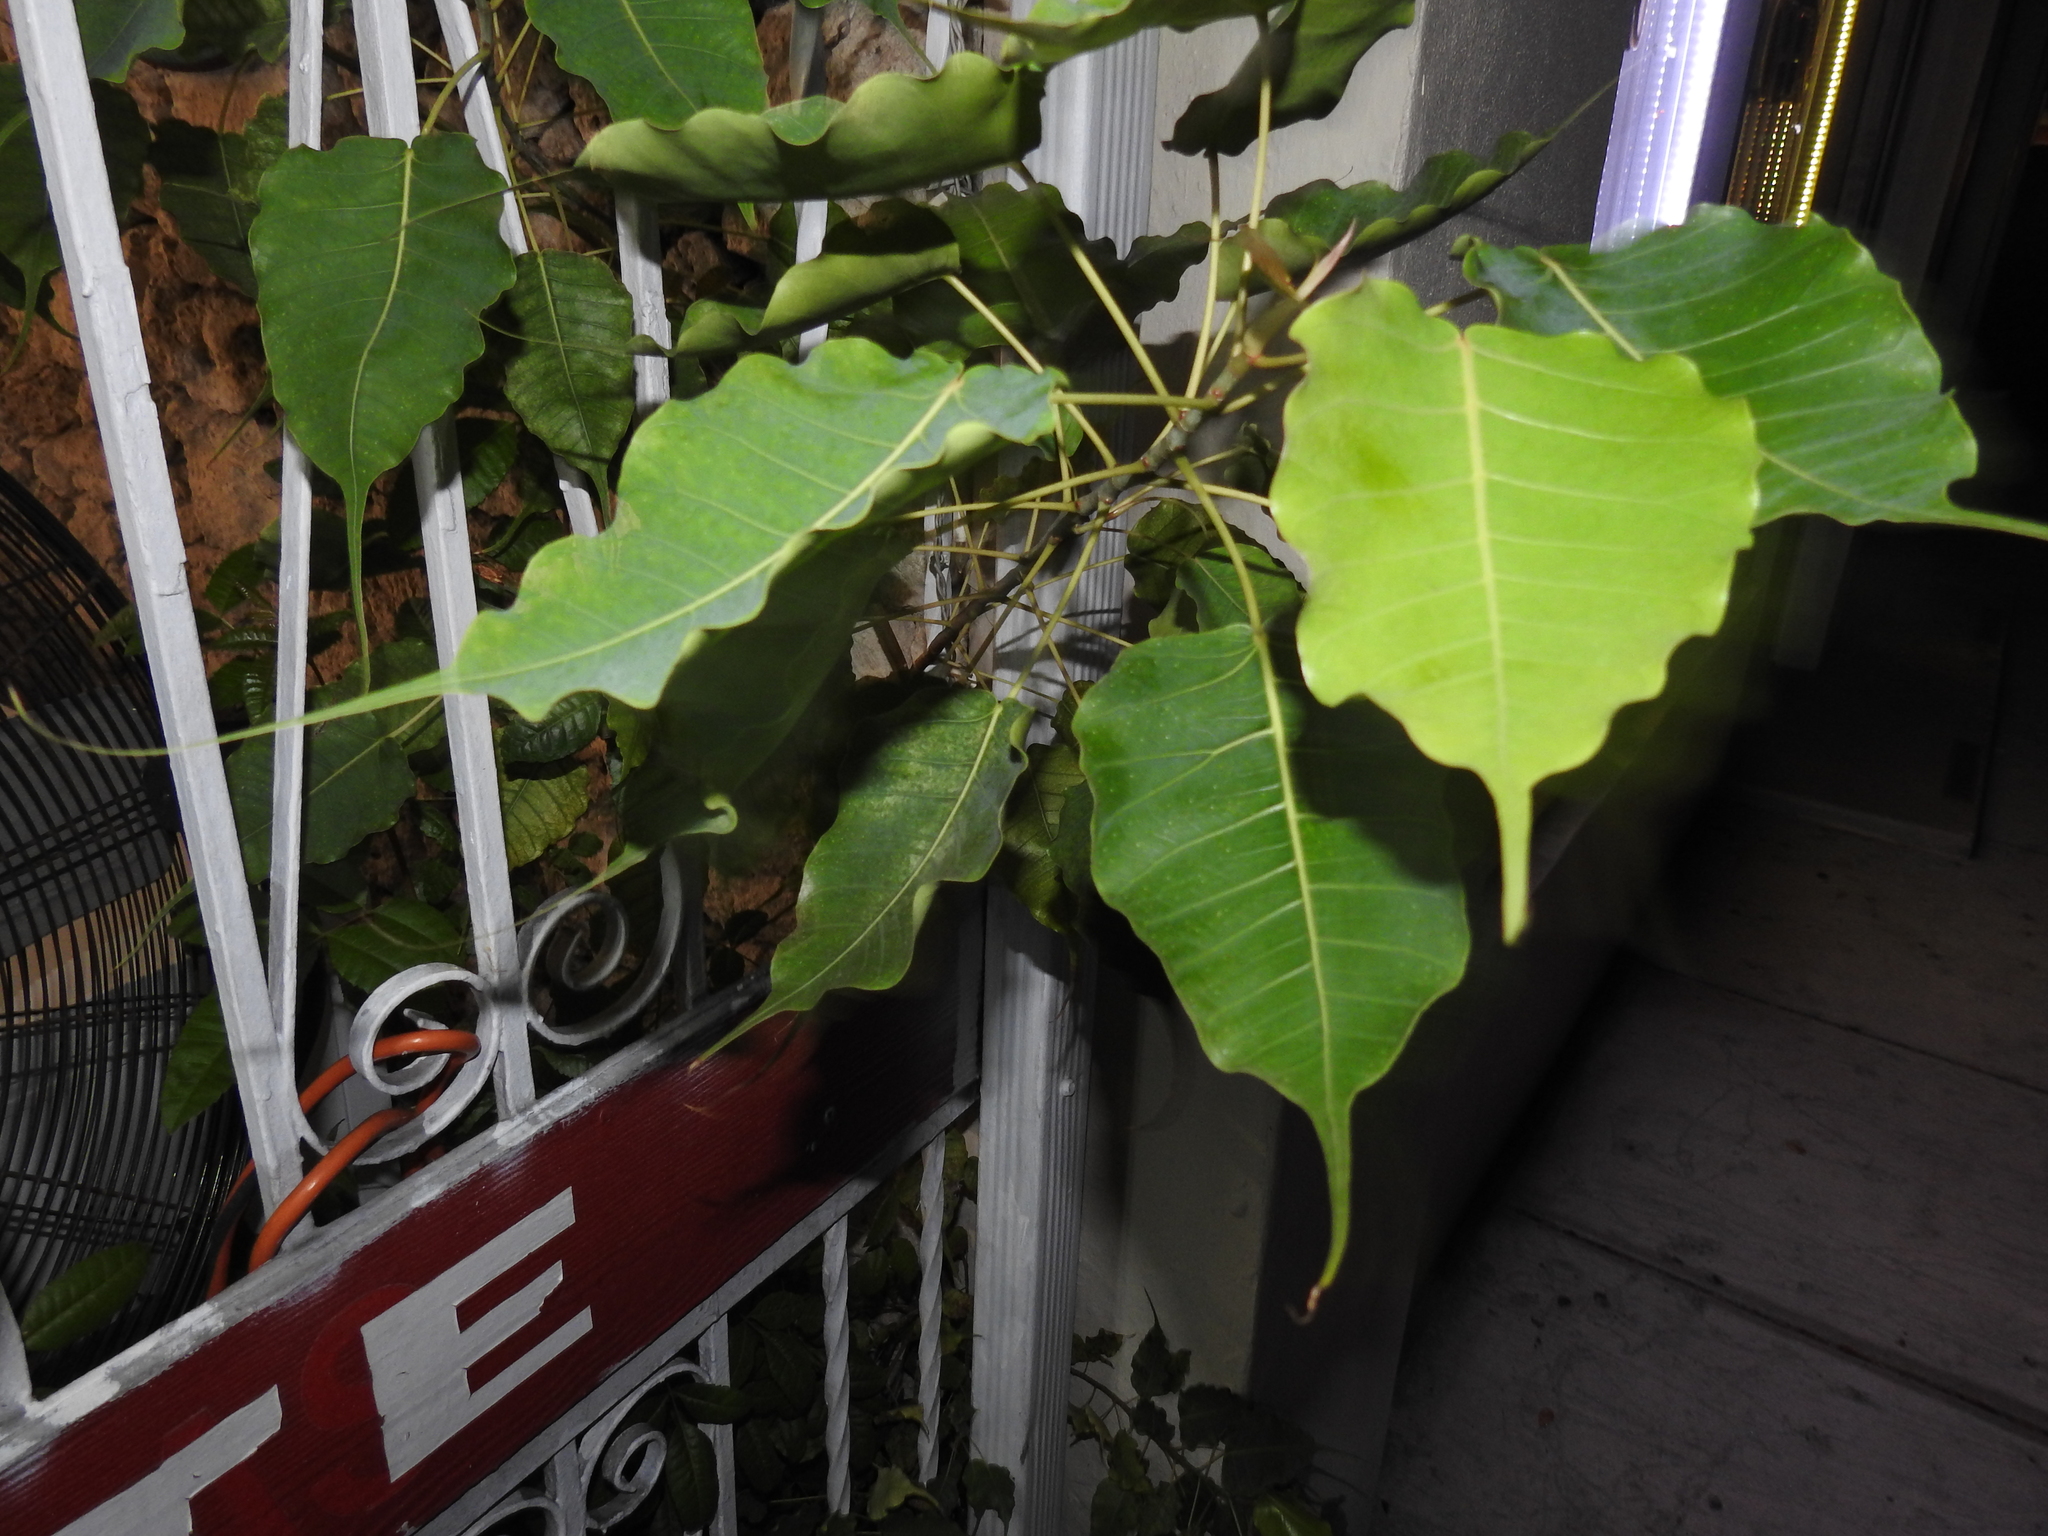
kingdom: Plantae
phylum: Tracheophyta
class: Magnoliopsida
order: Rosales
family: Moraceae
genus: Ficus
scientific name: Ficus religiosa
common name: Bodhi tree
